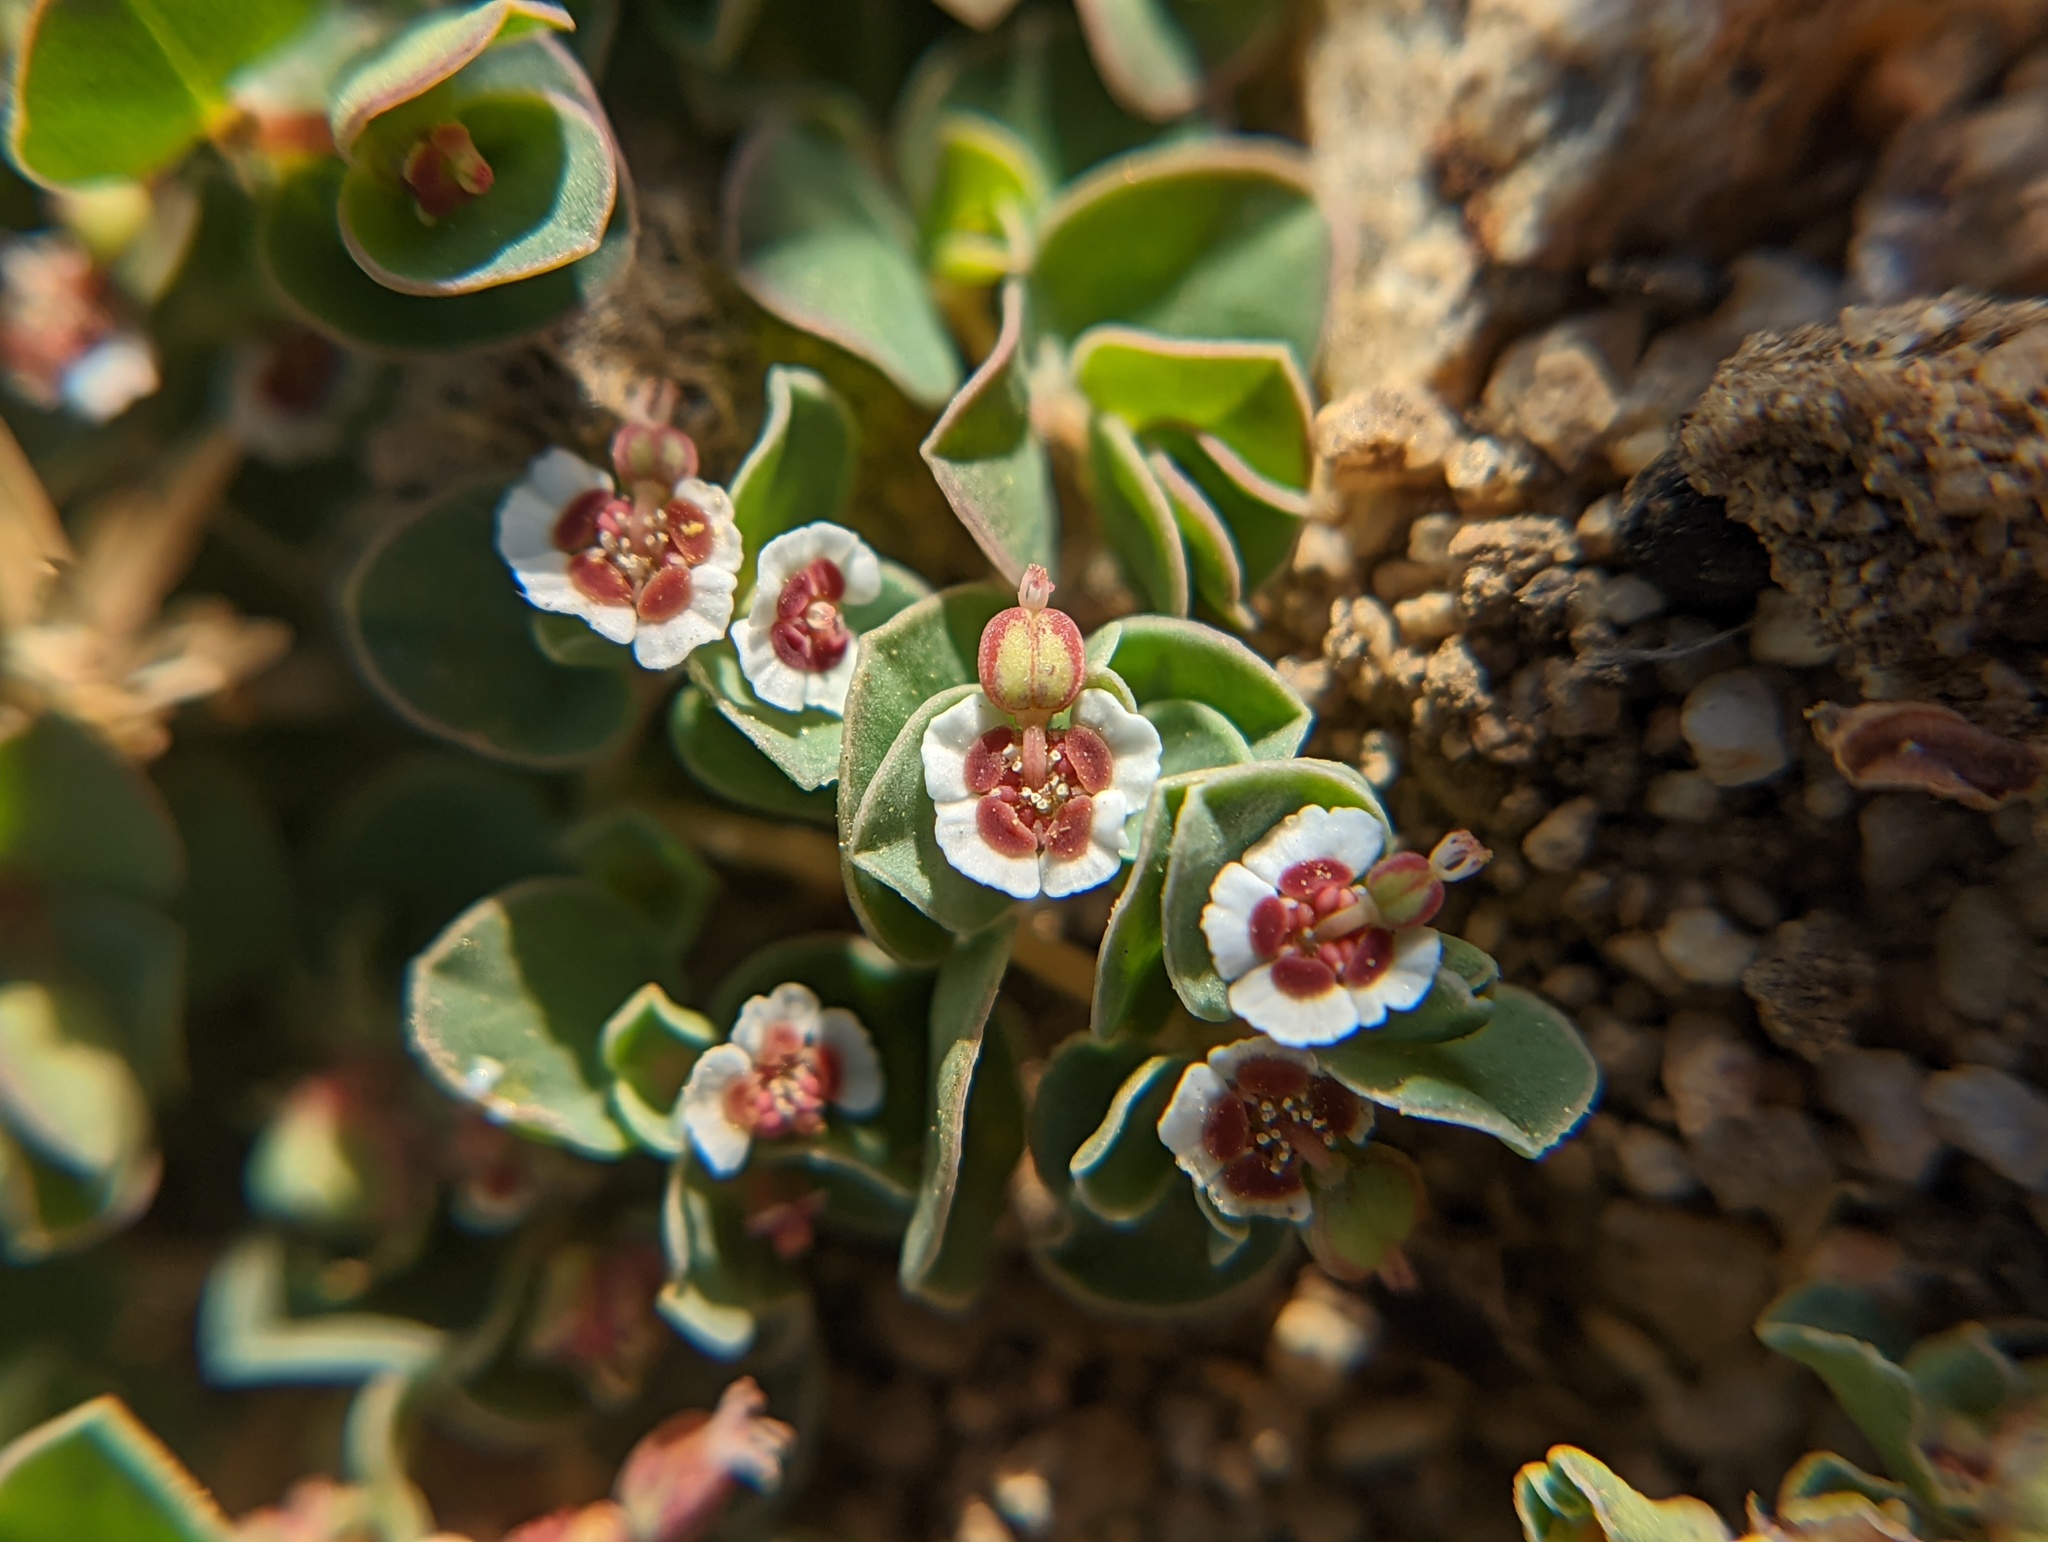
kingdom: Plantae
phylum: Tracheophyta
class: Magnoliopsida
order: Malpighiales
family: Euphorbiaceae
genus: Euphorbia
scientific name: Euphorbia albomarginata
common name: Whitemargin sandmat
